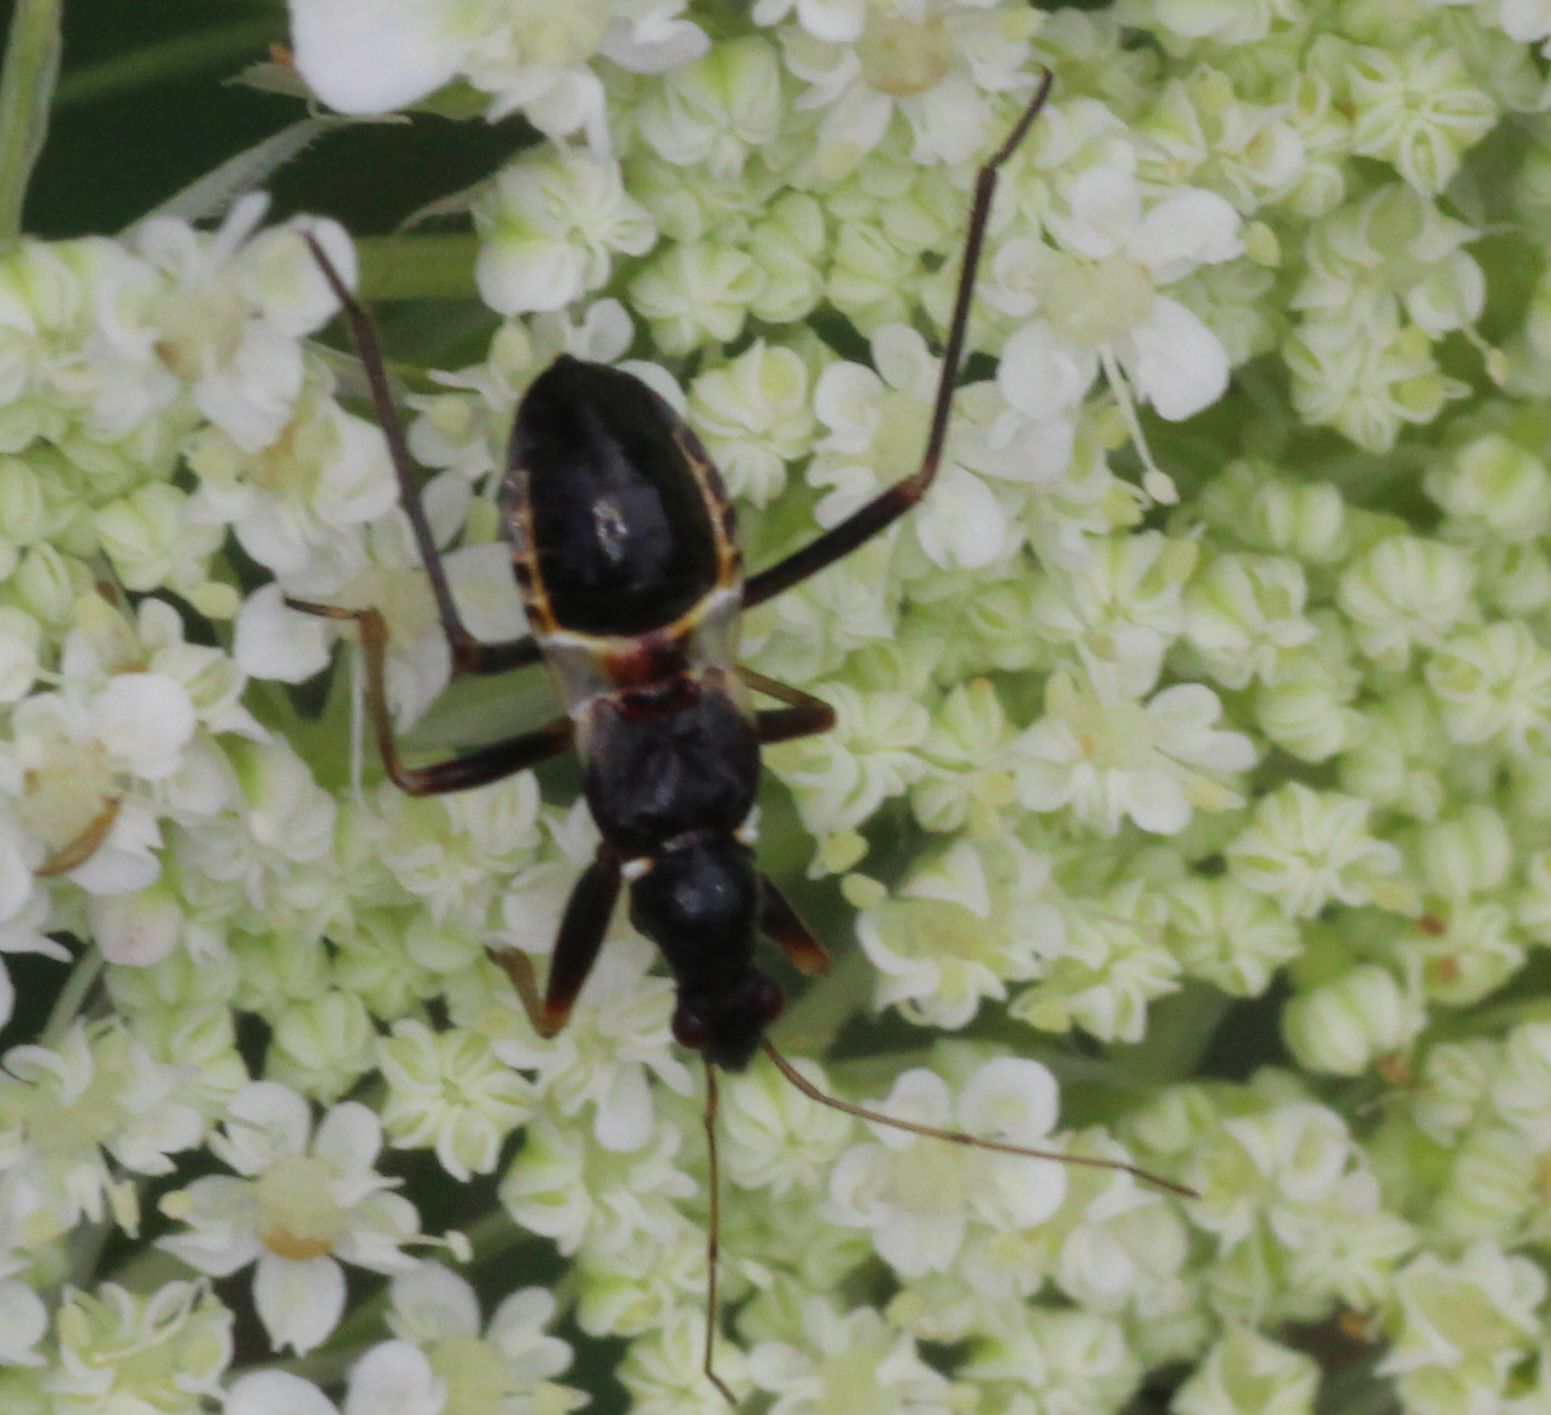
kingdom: Animalia
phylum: Arthropoda
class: Insecta
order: Hemiptera
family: Nabidae
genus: Himacerus
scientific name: Himacerus mirmicoides
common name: Ant damsel bug
